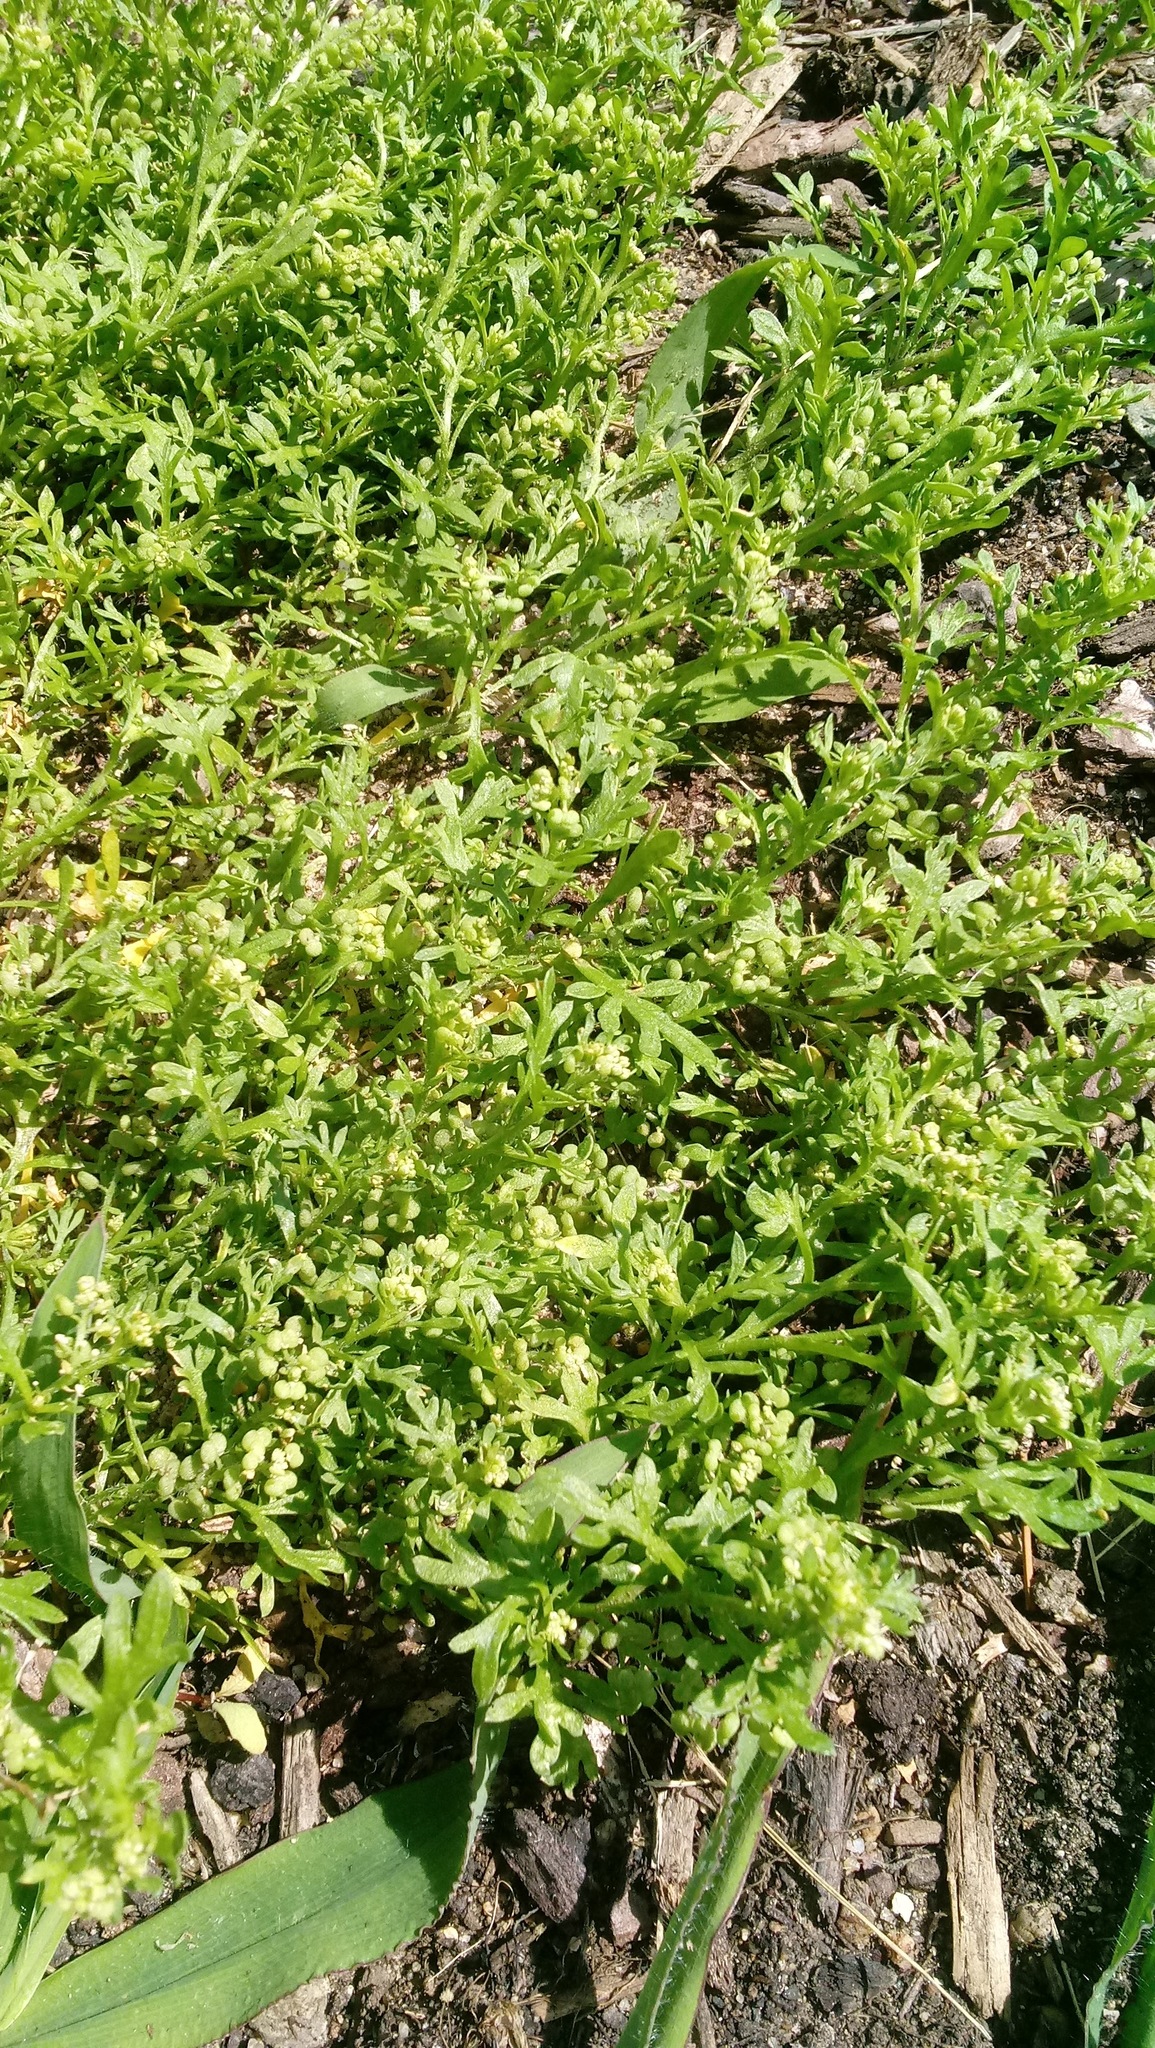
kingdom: Plantae
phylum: Tracheophyta
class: Magnoliopsida
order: Brassicales
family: Brassicaceae
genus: Lepidium
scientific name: Lepidium didymum
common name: Lesser swinecress
